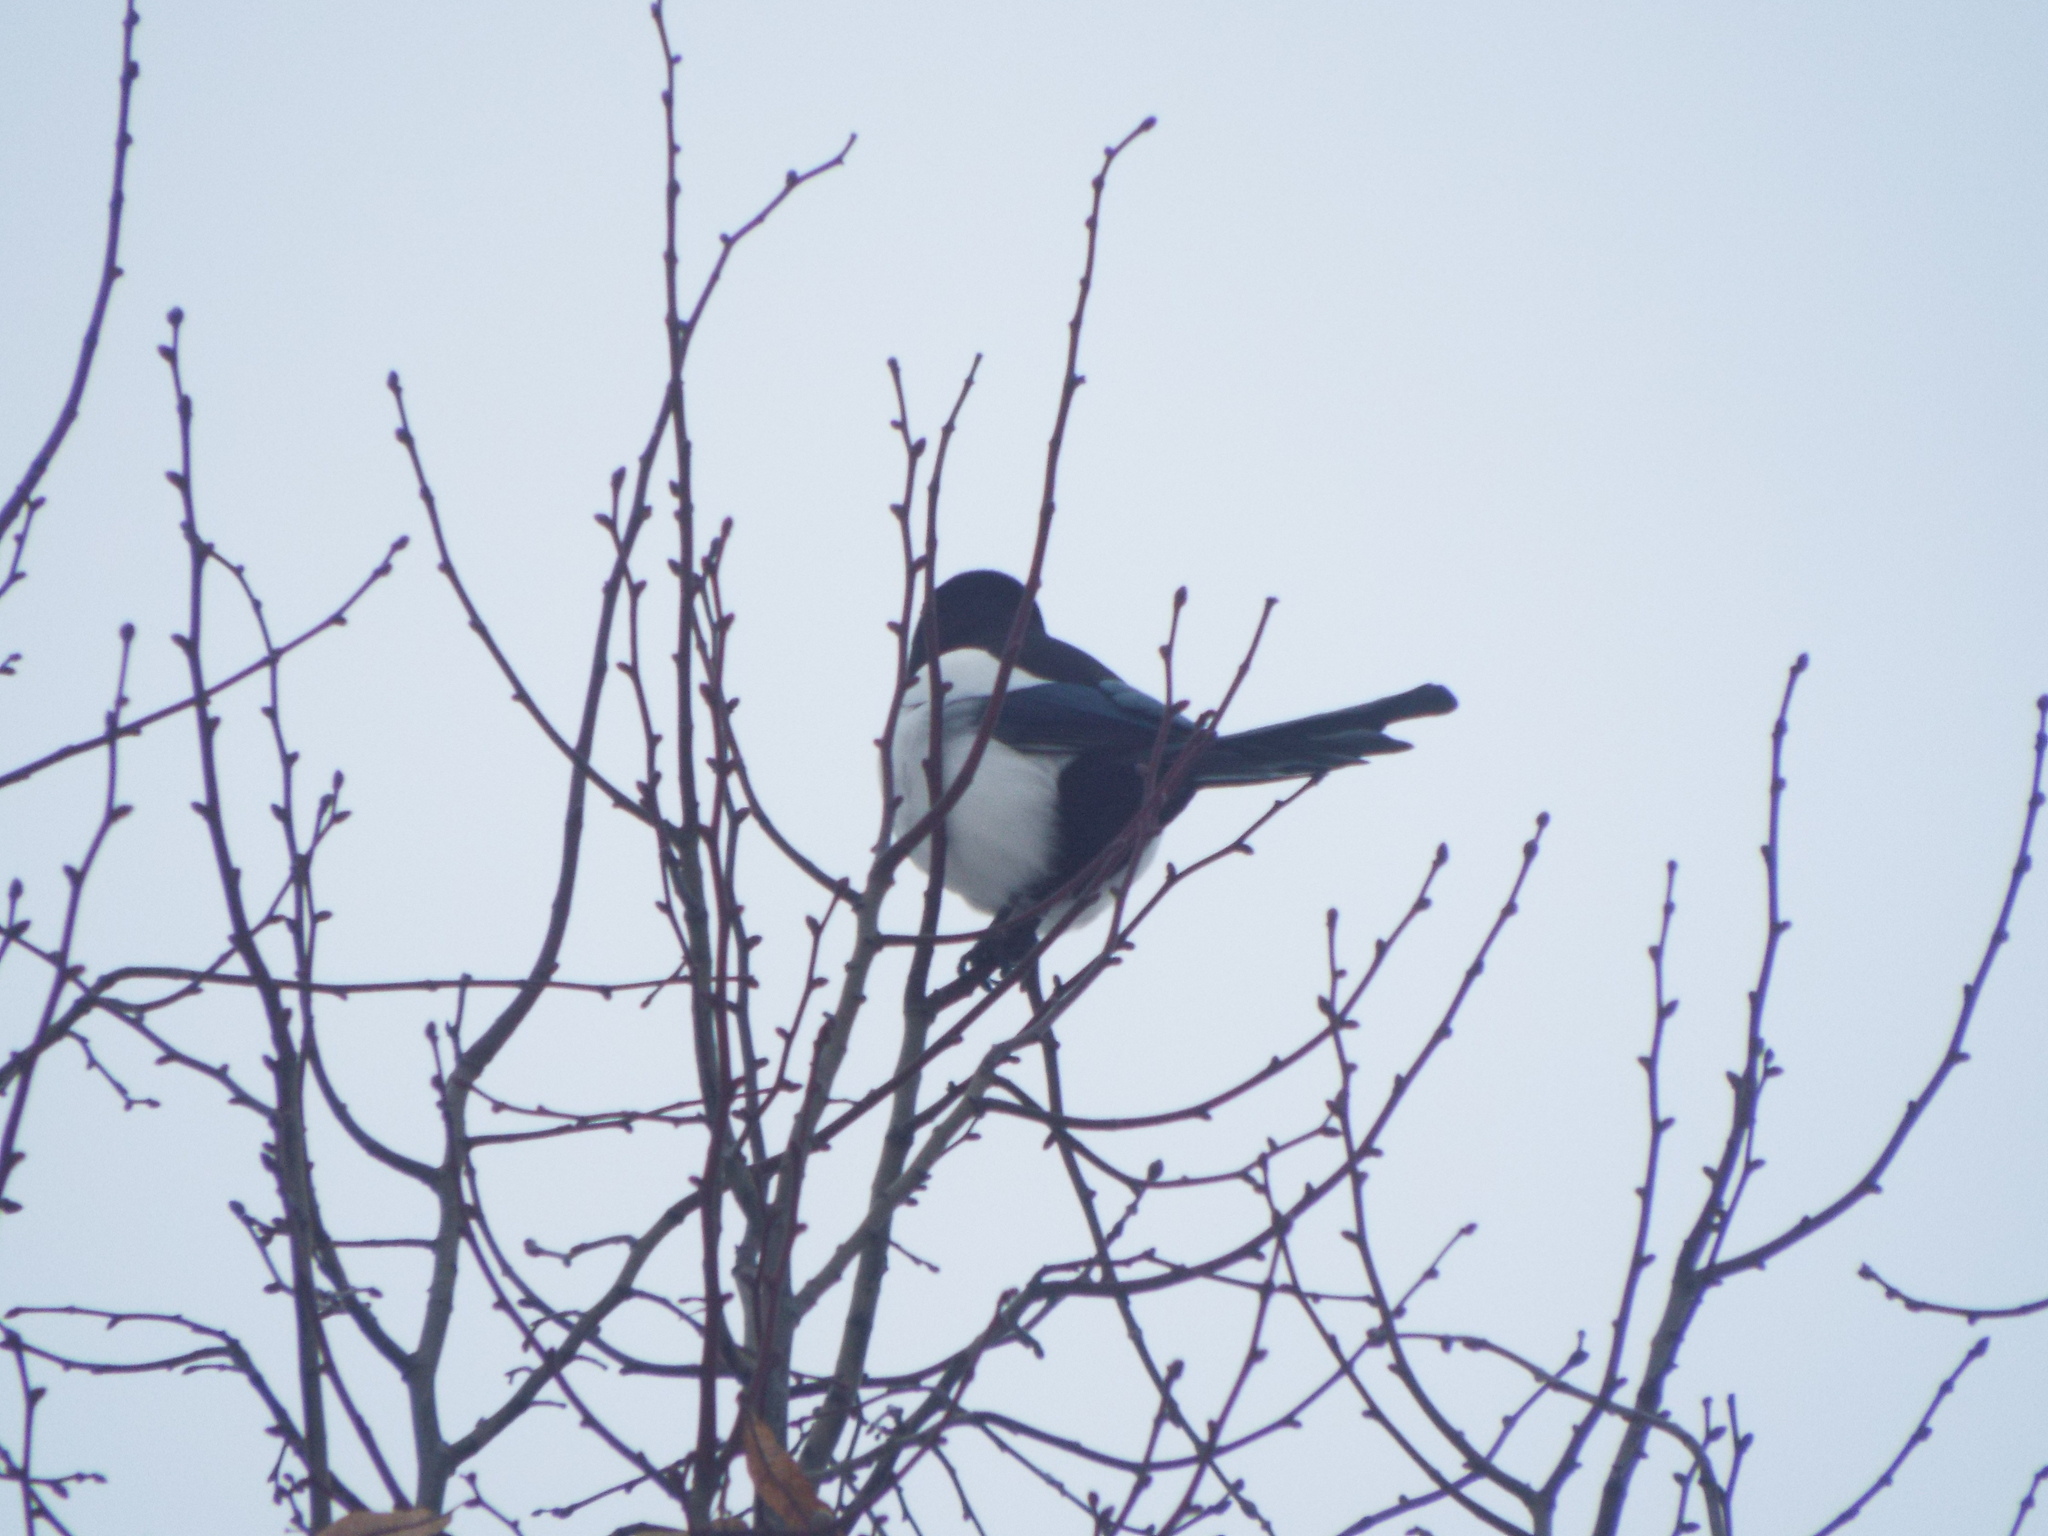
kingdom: Animalia
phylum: Chordata
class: Aves
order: Passeriformes
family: Corvidae
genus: Pica
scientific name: Pica pica
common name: Eurasian magpie
